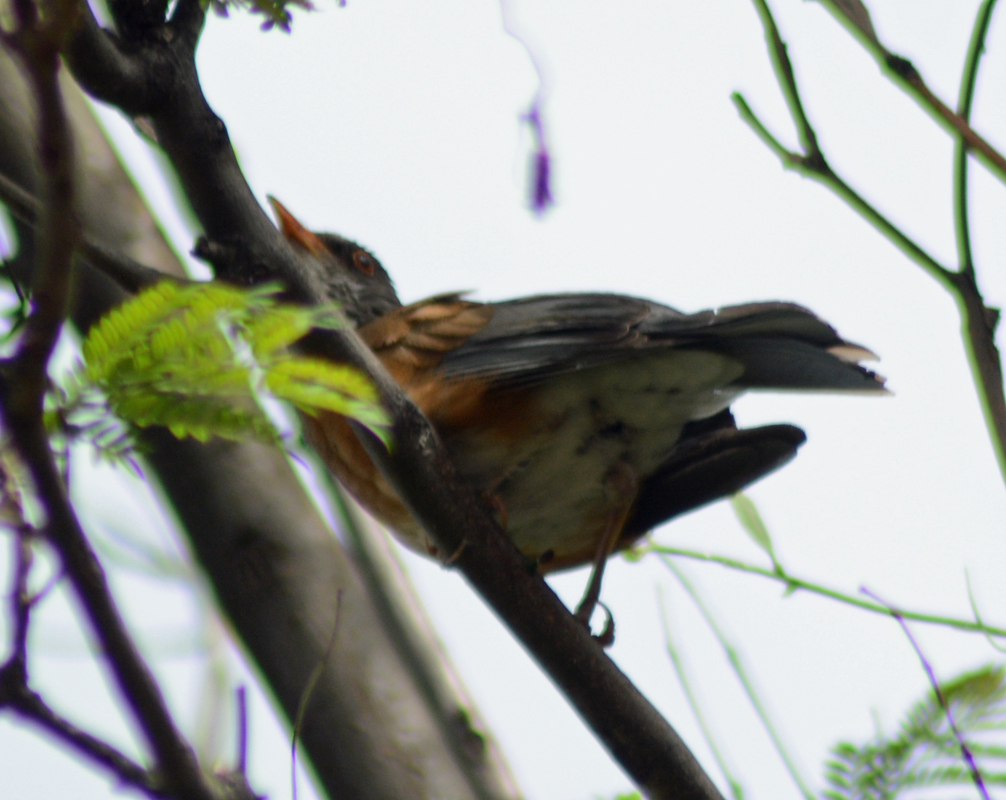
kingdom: Animalia
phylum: Chordata
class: Aves
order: Passeriformes
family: Turdidae
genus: Turdus
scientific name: Turdus rufopalliatus
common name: Rufous-backed robin
